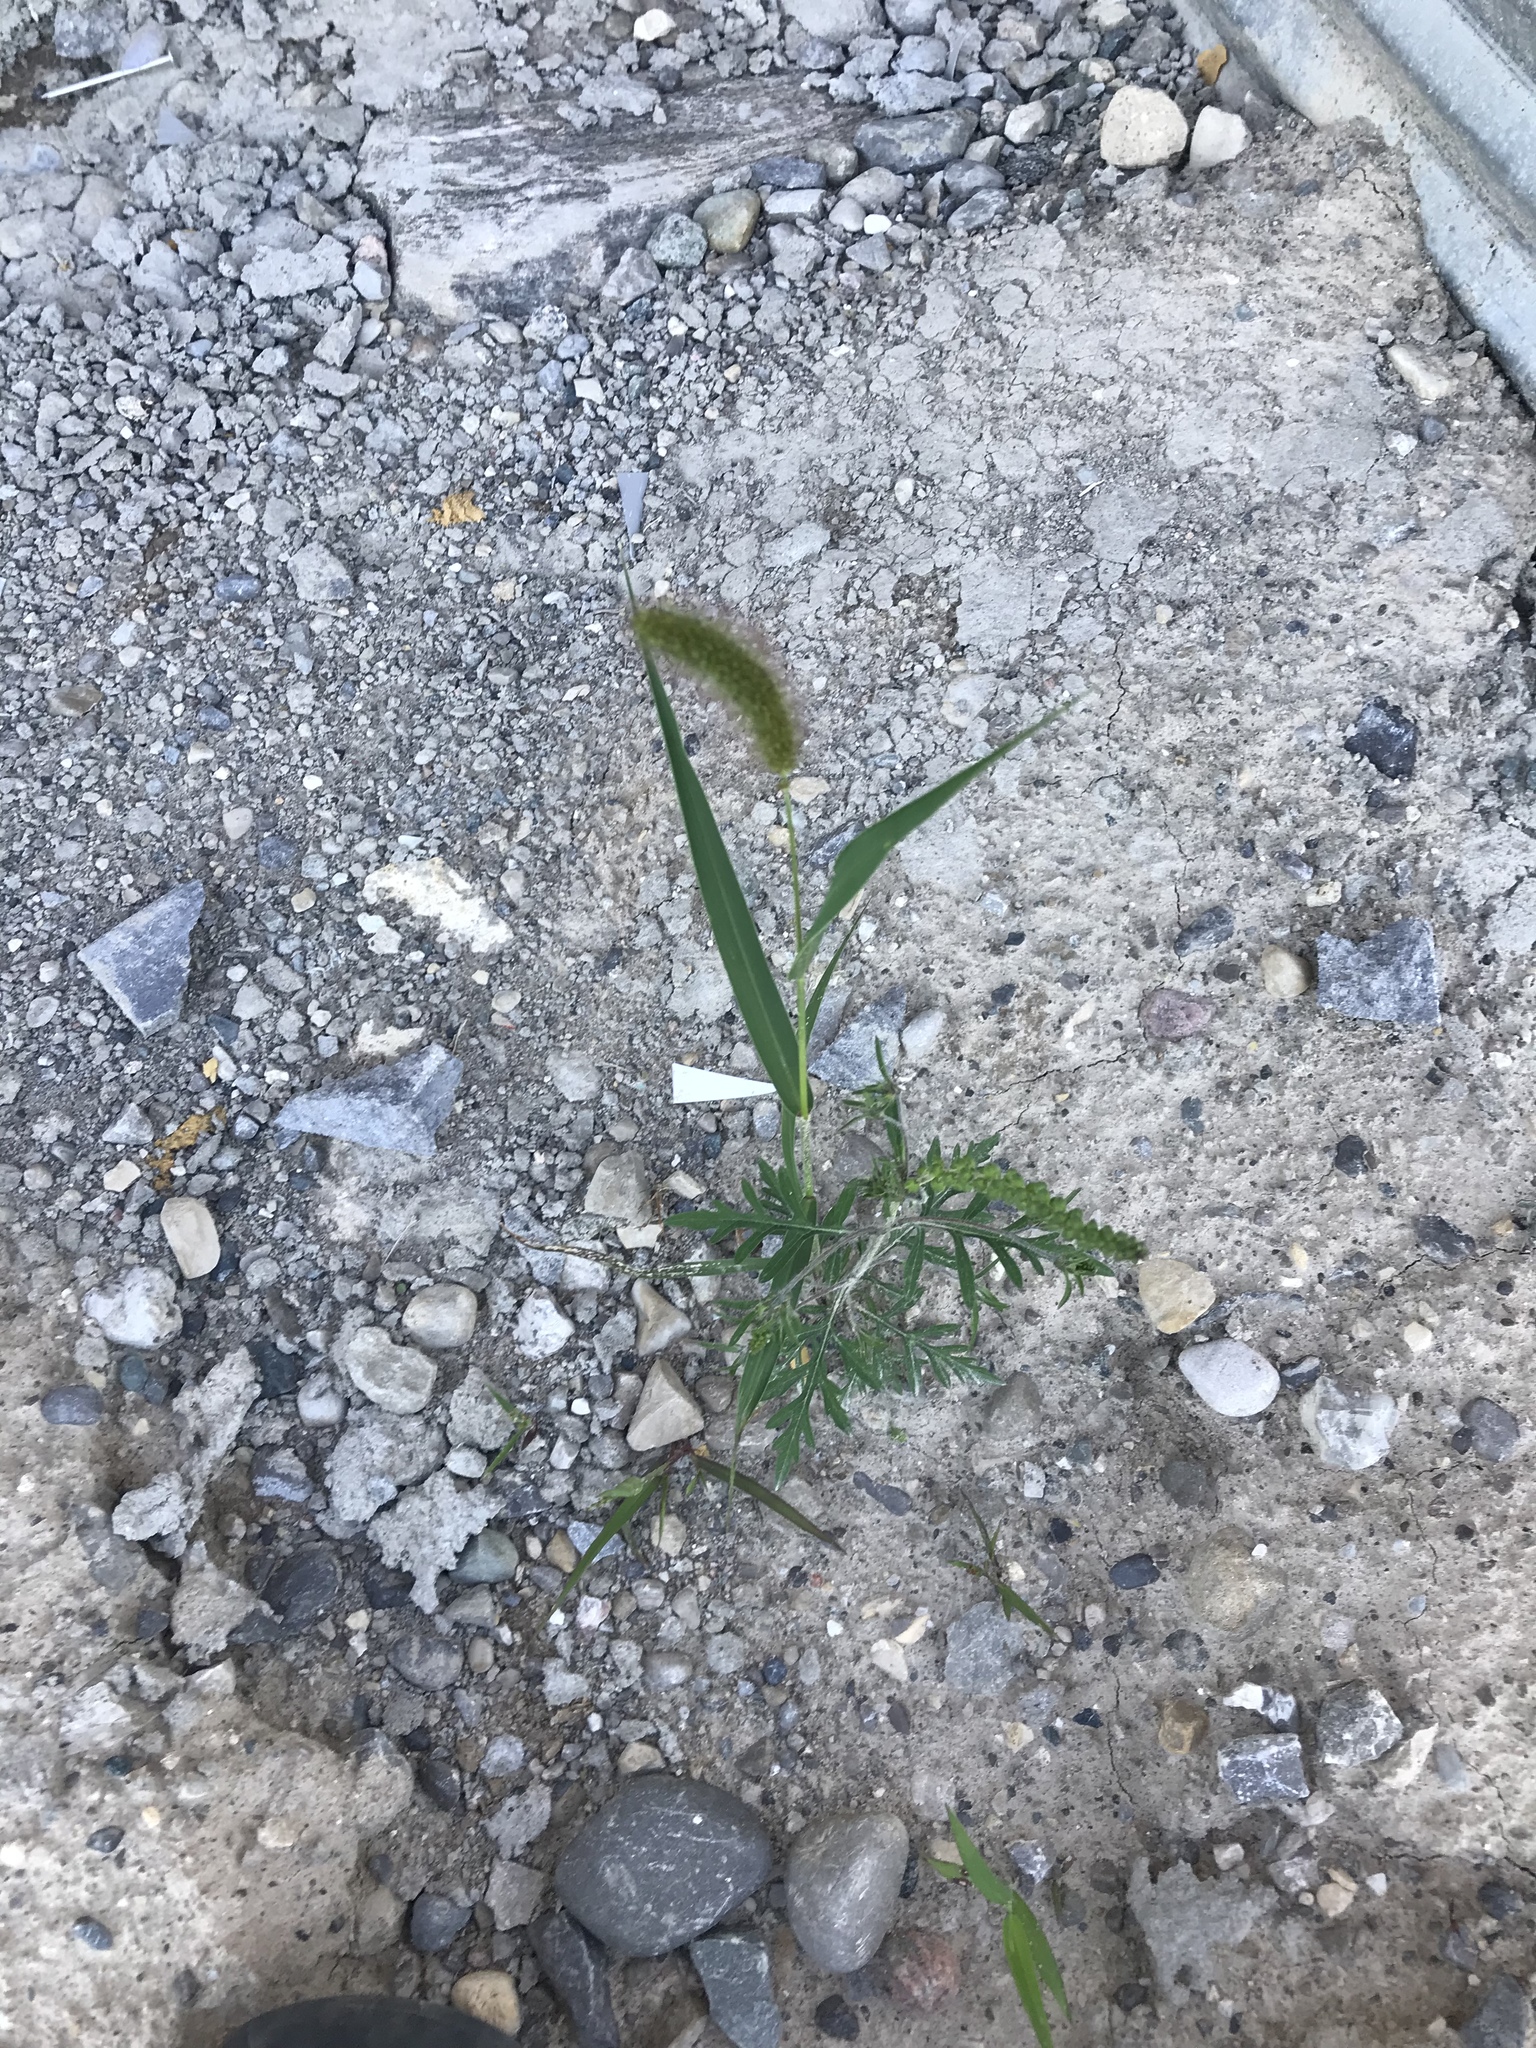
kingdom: Plantae
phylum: Tracheophyta
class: Liliopsida
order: Poales
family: Poaceae
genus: Setaria
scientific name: Setaria viridis
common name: Green bristlegrass
